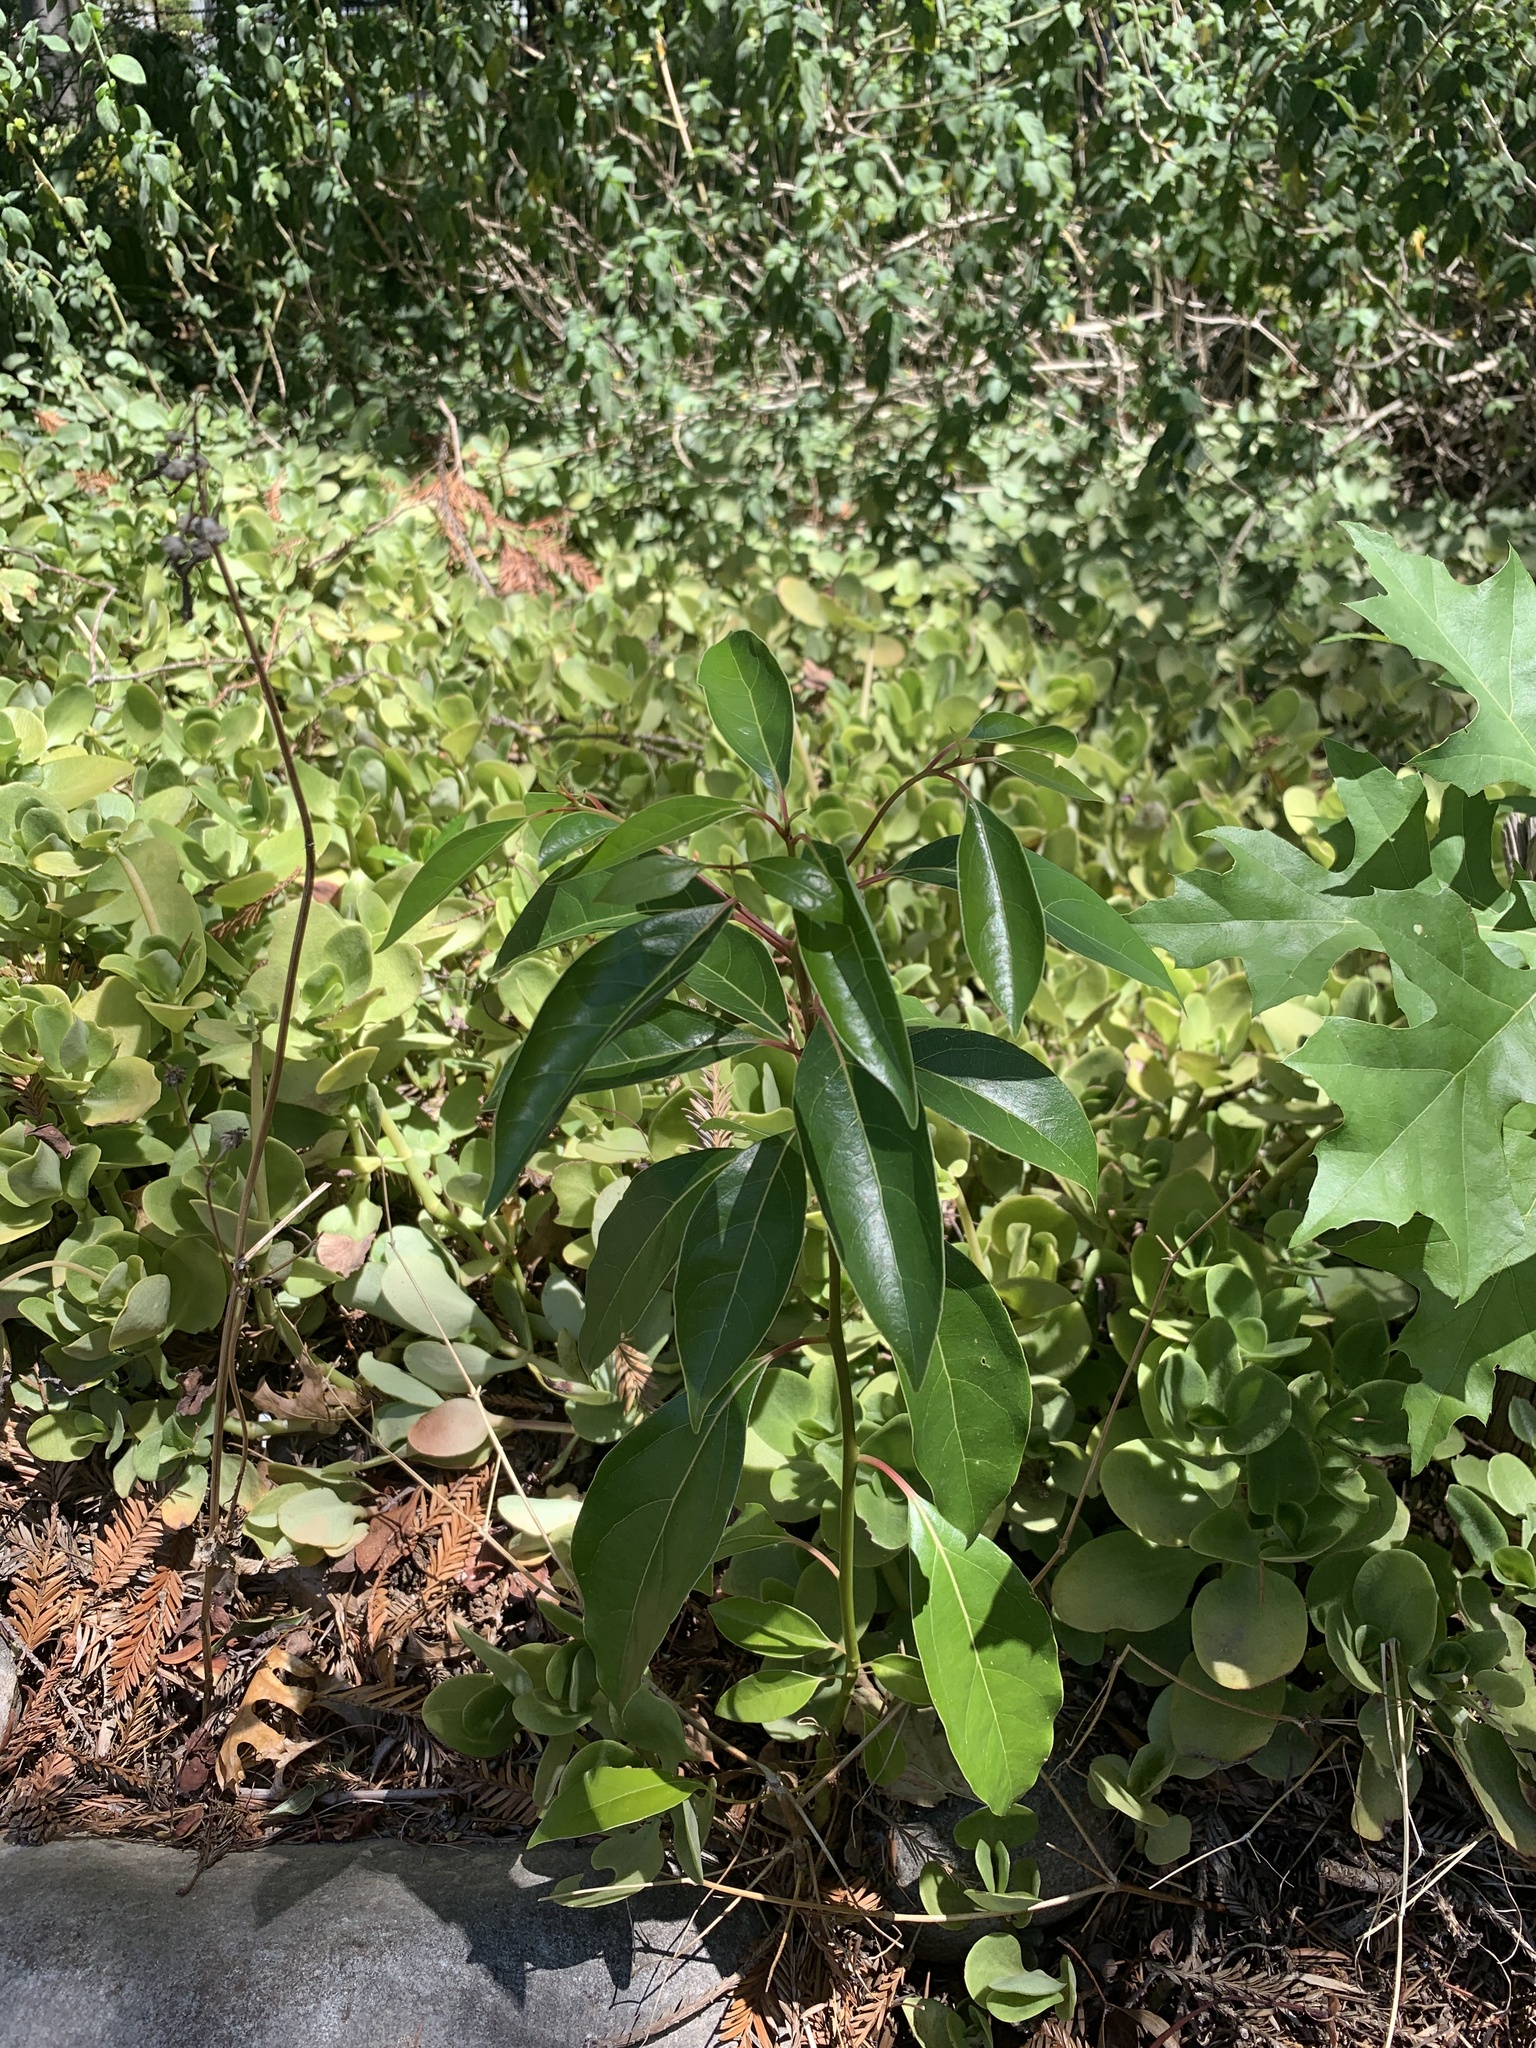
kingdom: Plantae
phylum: Tracheophyta
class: Magnoliopsida
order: Laurales
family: Lauraceae
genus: Cinnamomum
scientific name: Cinnamomum camphora
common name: Camphortree
